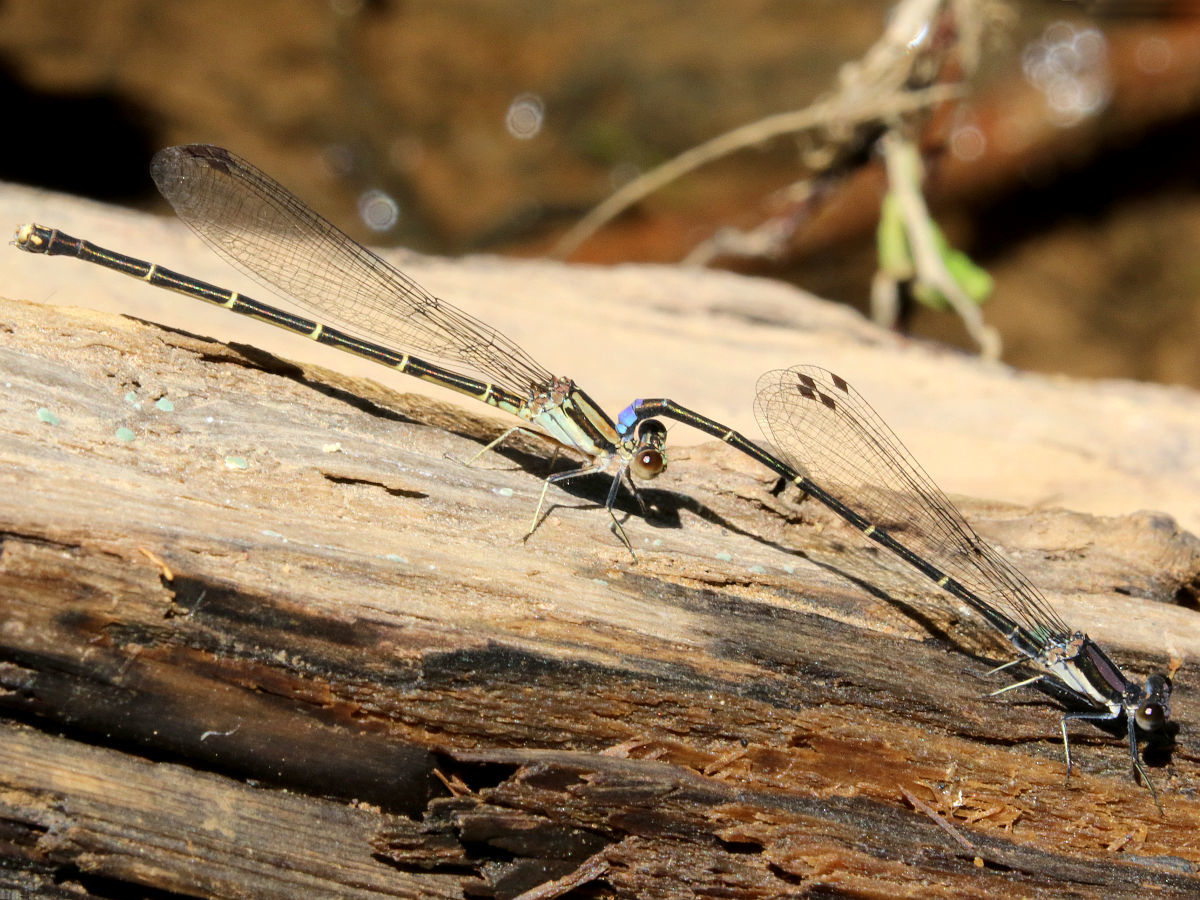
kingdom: Animalia
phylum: Arthropoda
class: Insecta
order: Odonata
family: Coenagrionidae
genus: Argia
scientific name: Argia tibialis
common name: Blue-tipped dancer
